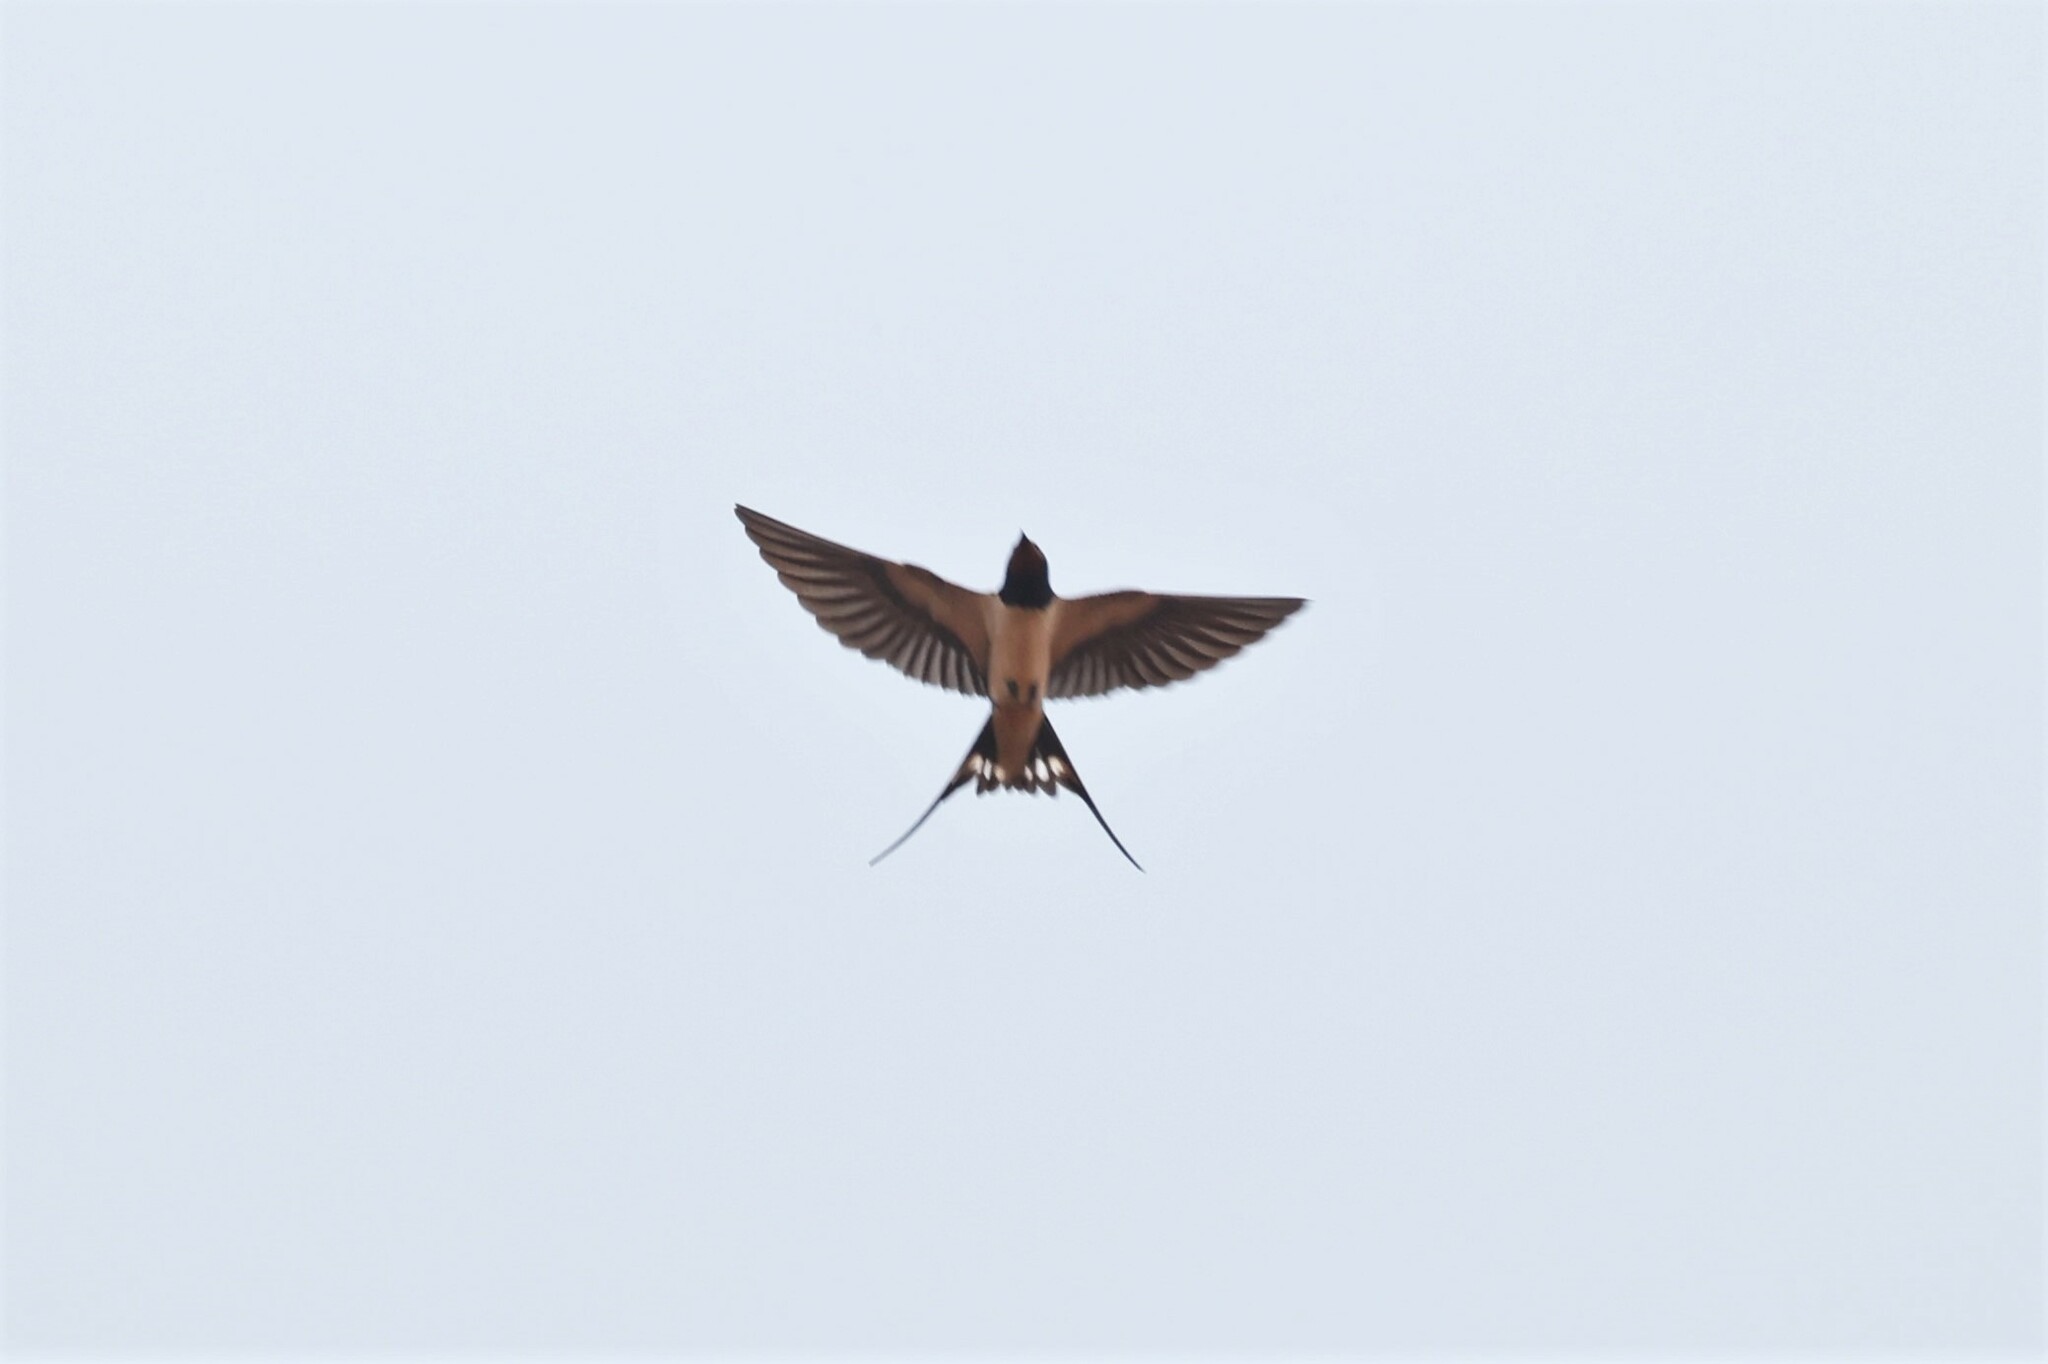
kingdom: Animalia
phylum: Chordata
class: Aves
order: Passeriformes
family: Hirundinidae
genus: Hirundo
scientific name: Hirundo rustica
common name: Barn swallow
